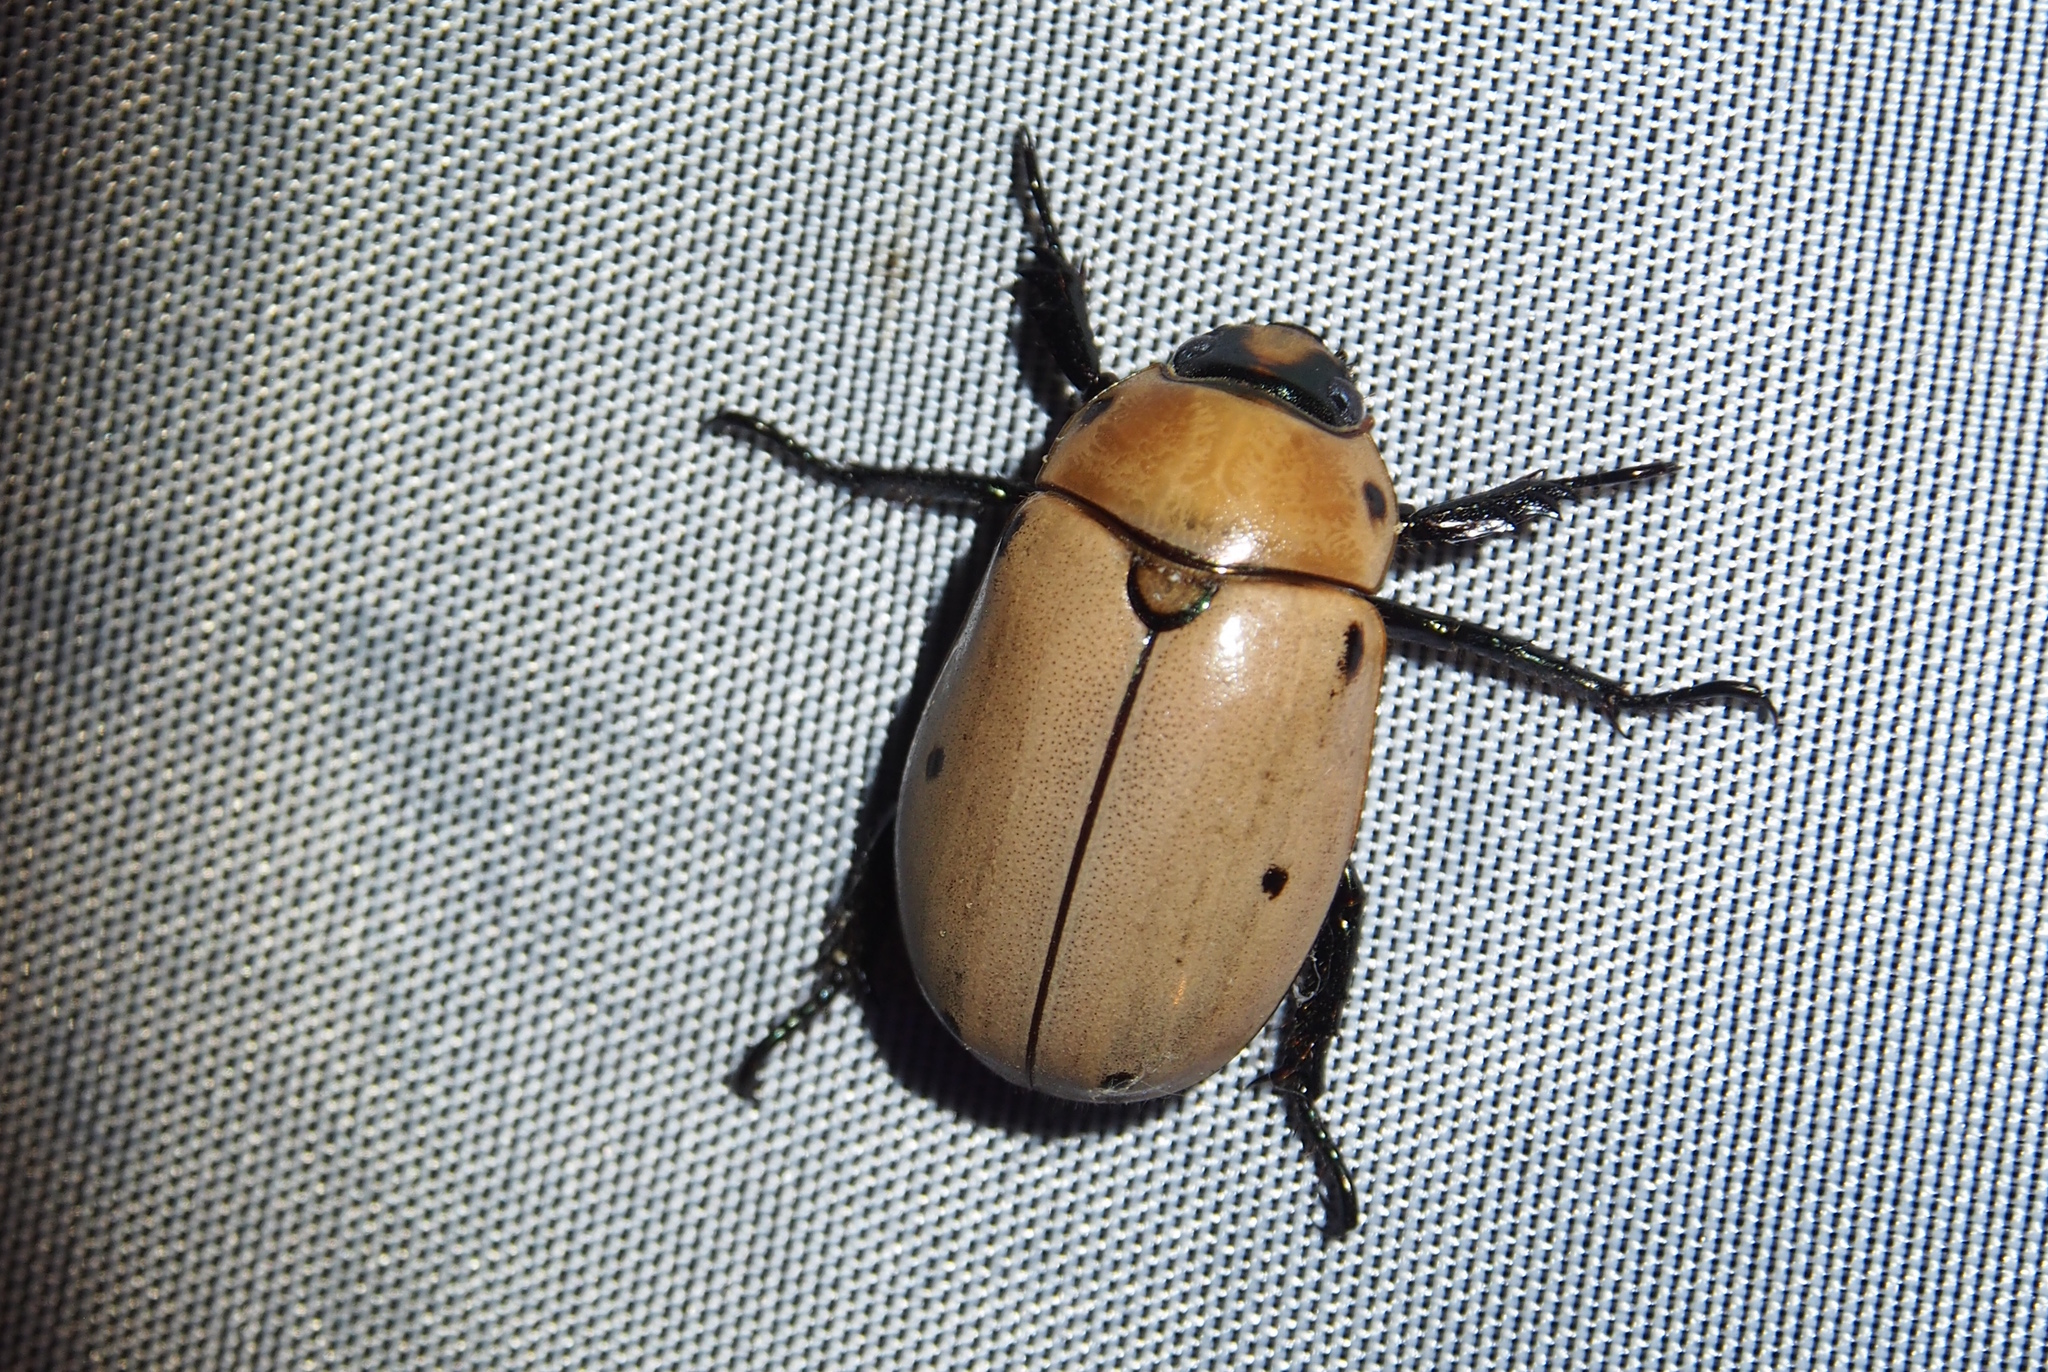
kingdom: Animalia
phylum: Arthropoda
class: Insecta
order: Coleoptera
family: Scarabaeidae
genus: Pelidnota
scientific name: Pelidnota punctata
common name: Grapevine beetle
